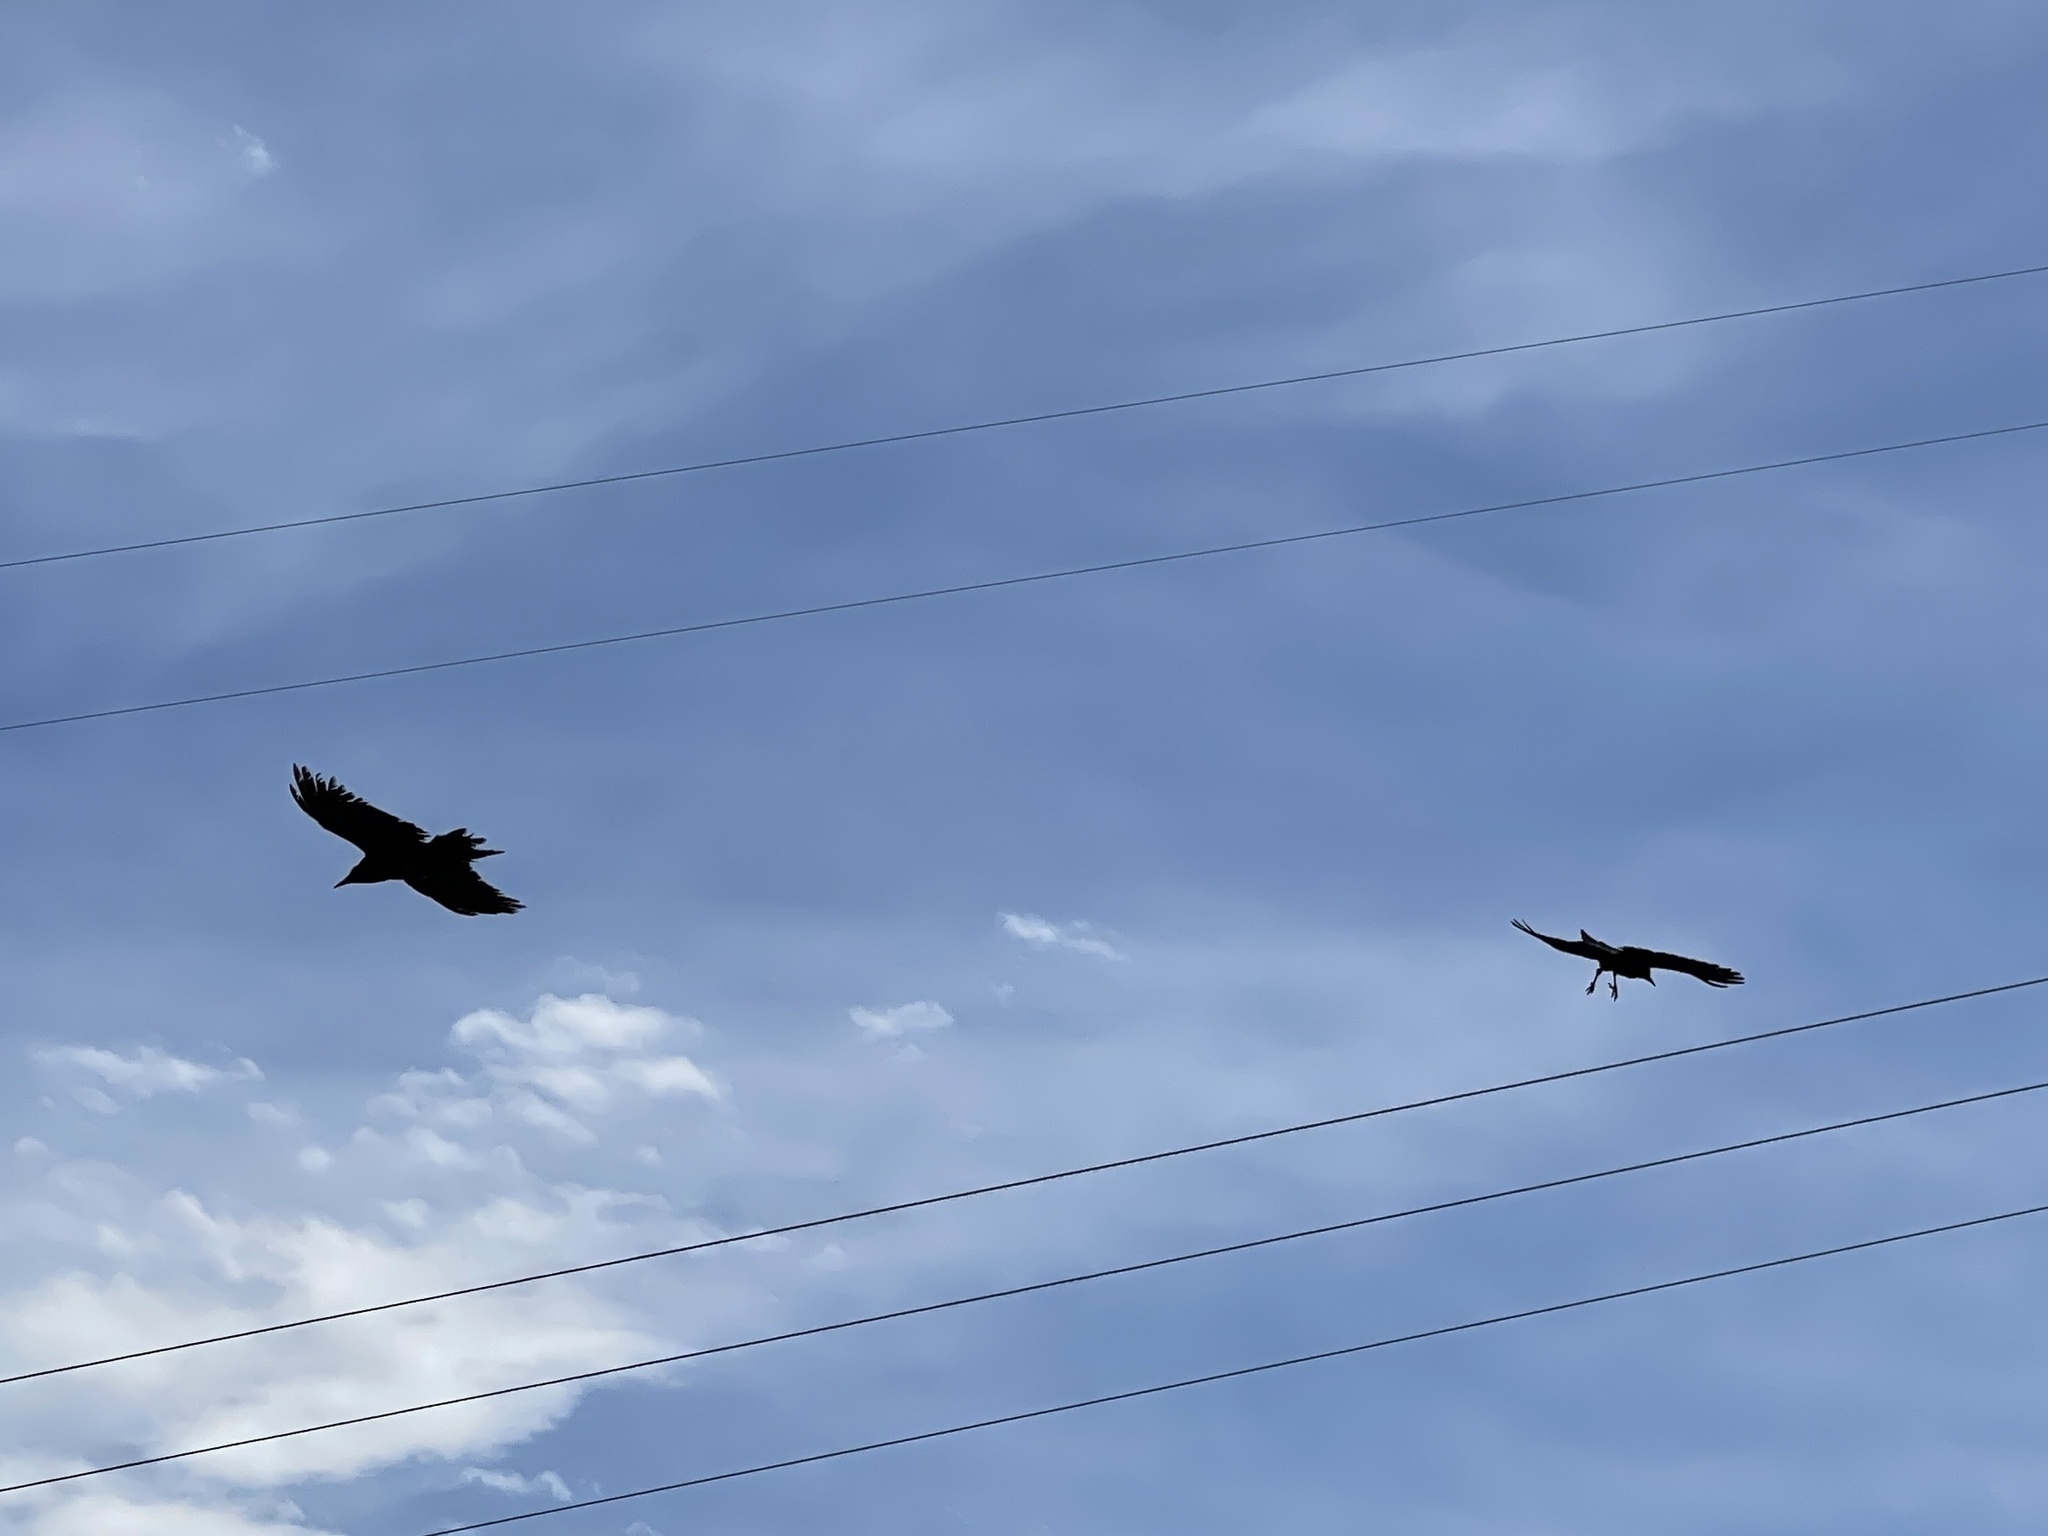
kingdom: Animalia
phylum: Chordata
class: Aves
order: Passeriformes
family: Corvidae
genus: Corvus
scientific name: Corvus corax
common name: Common raven
